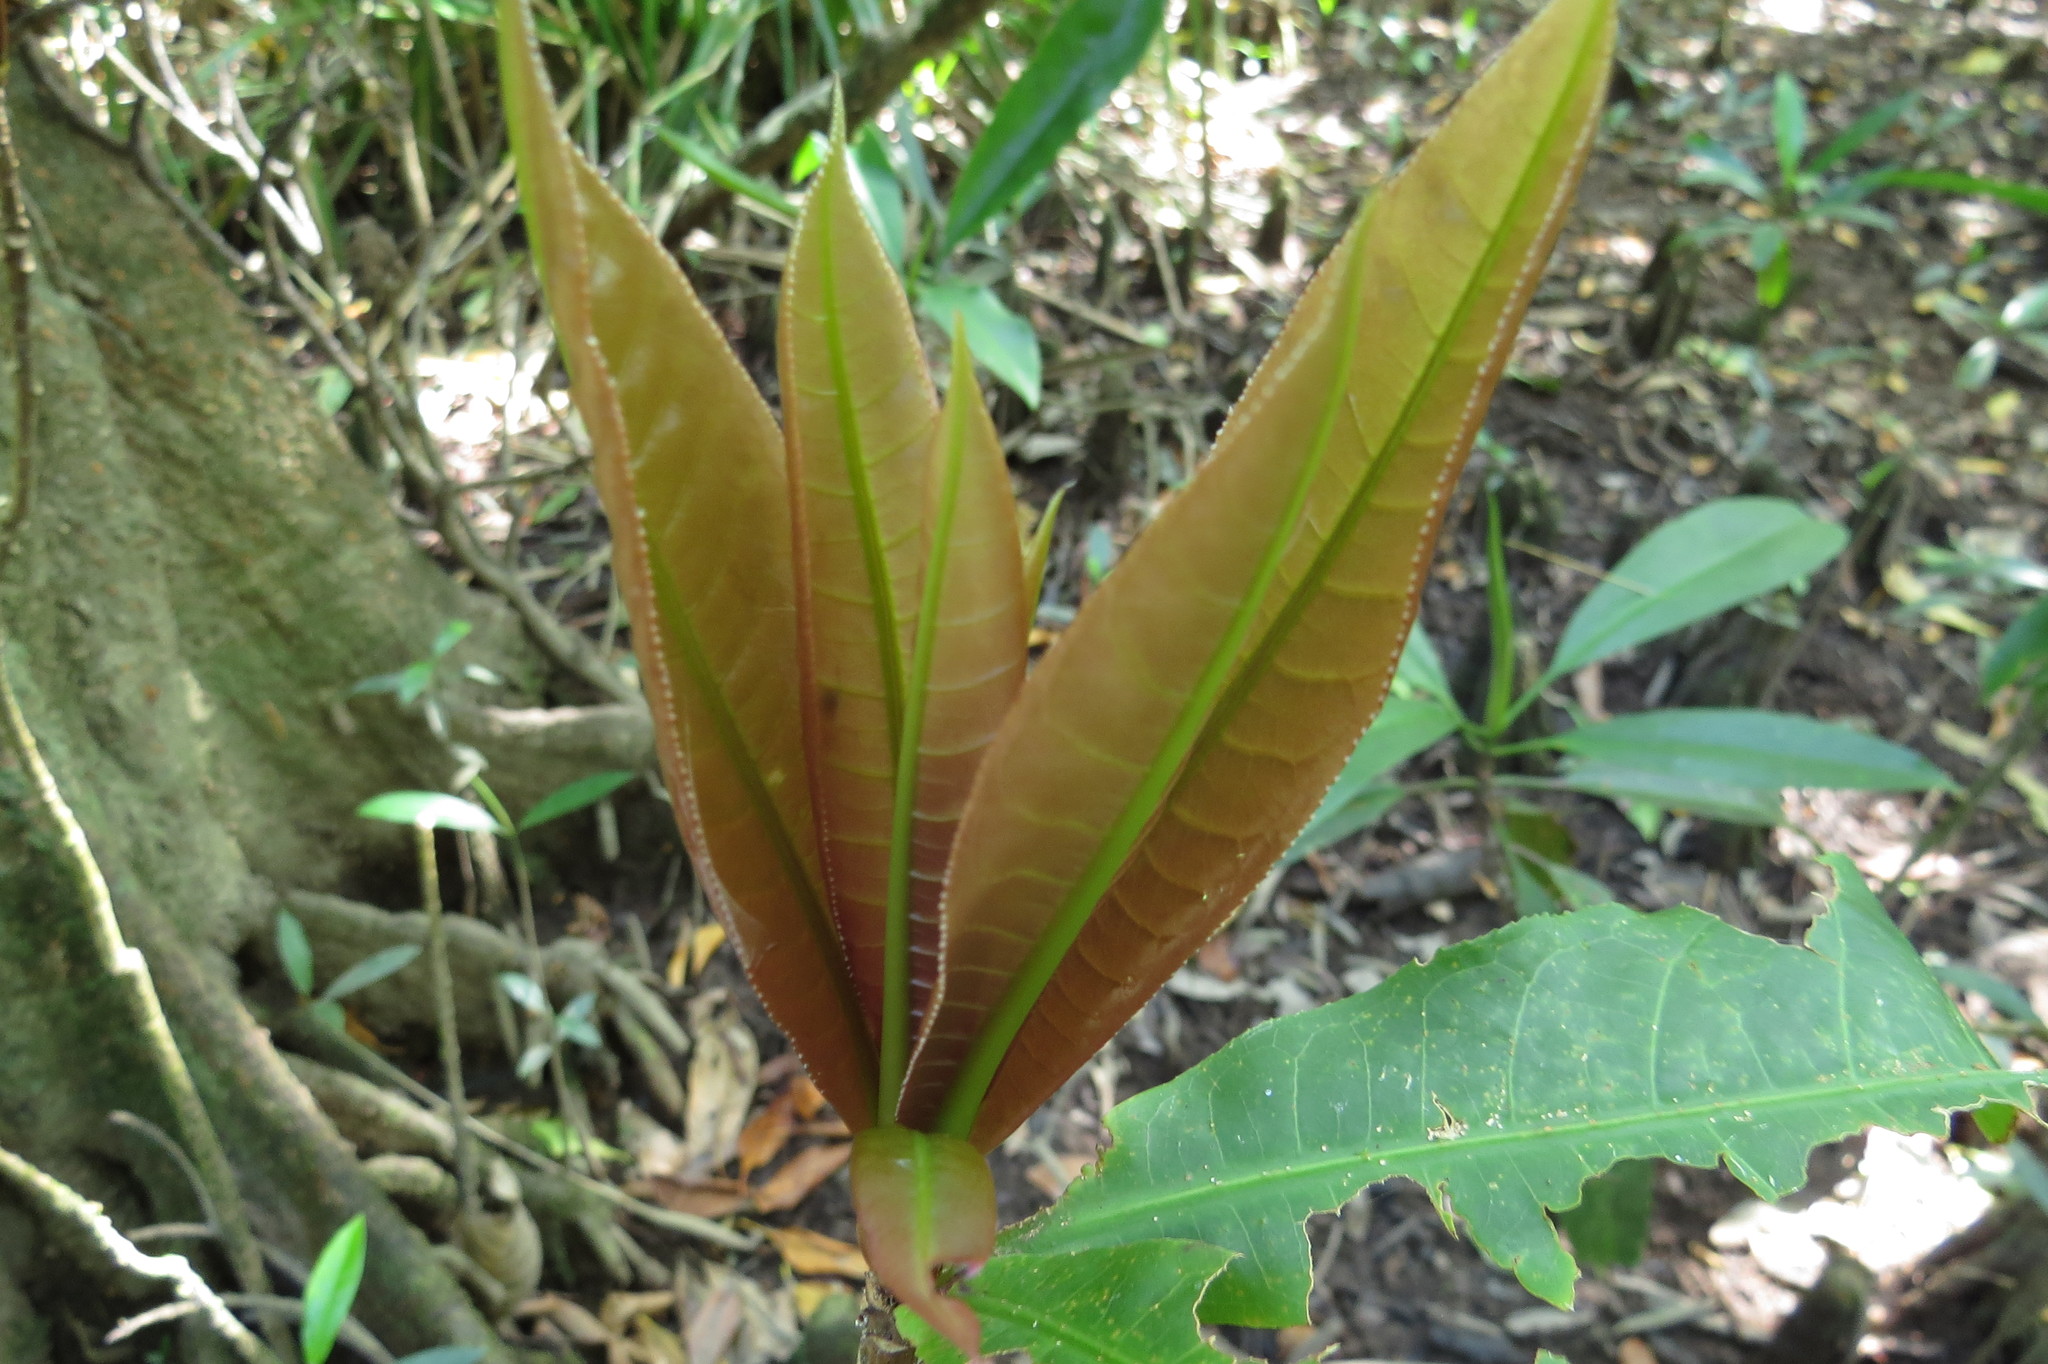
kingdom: Plantae
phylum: Tracheophyta
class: Magnoliopsida
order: Ericales
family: Lecythidaceae
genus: Barringtonia
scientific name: Barringtonia racemosa
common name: Brackwater mangrove
